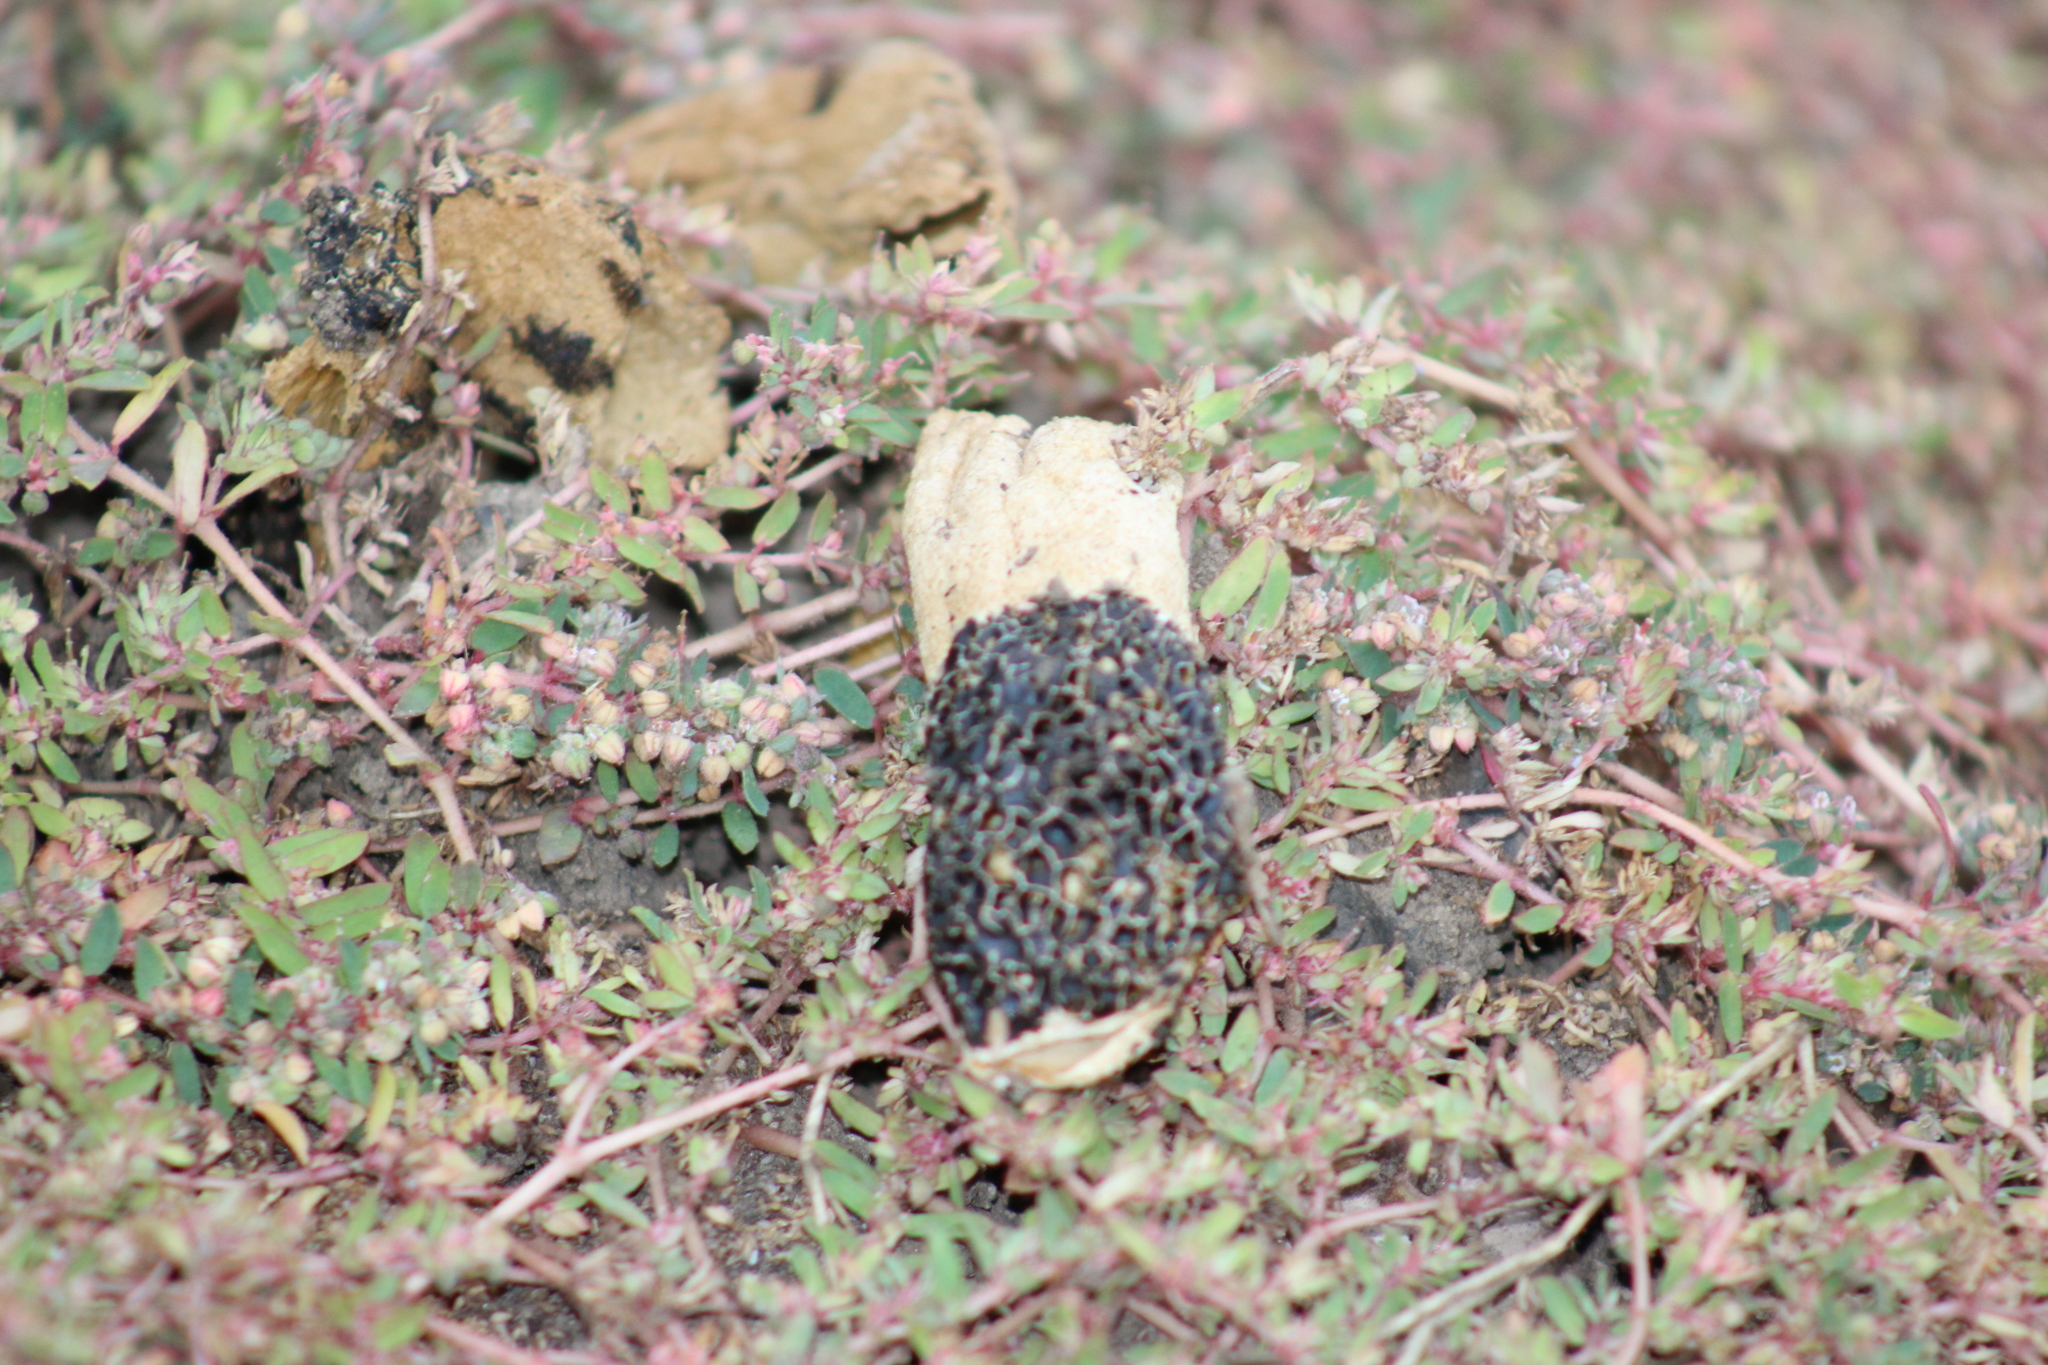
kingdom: Fungi
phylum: Basidiomycota
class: Agaricomycetes
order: Phallales
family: Phallaceae
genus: Phallus
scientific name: Phallus hadriani
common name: Sand stinkhorn
